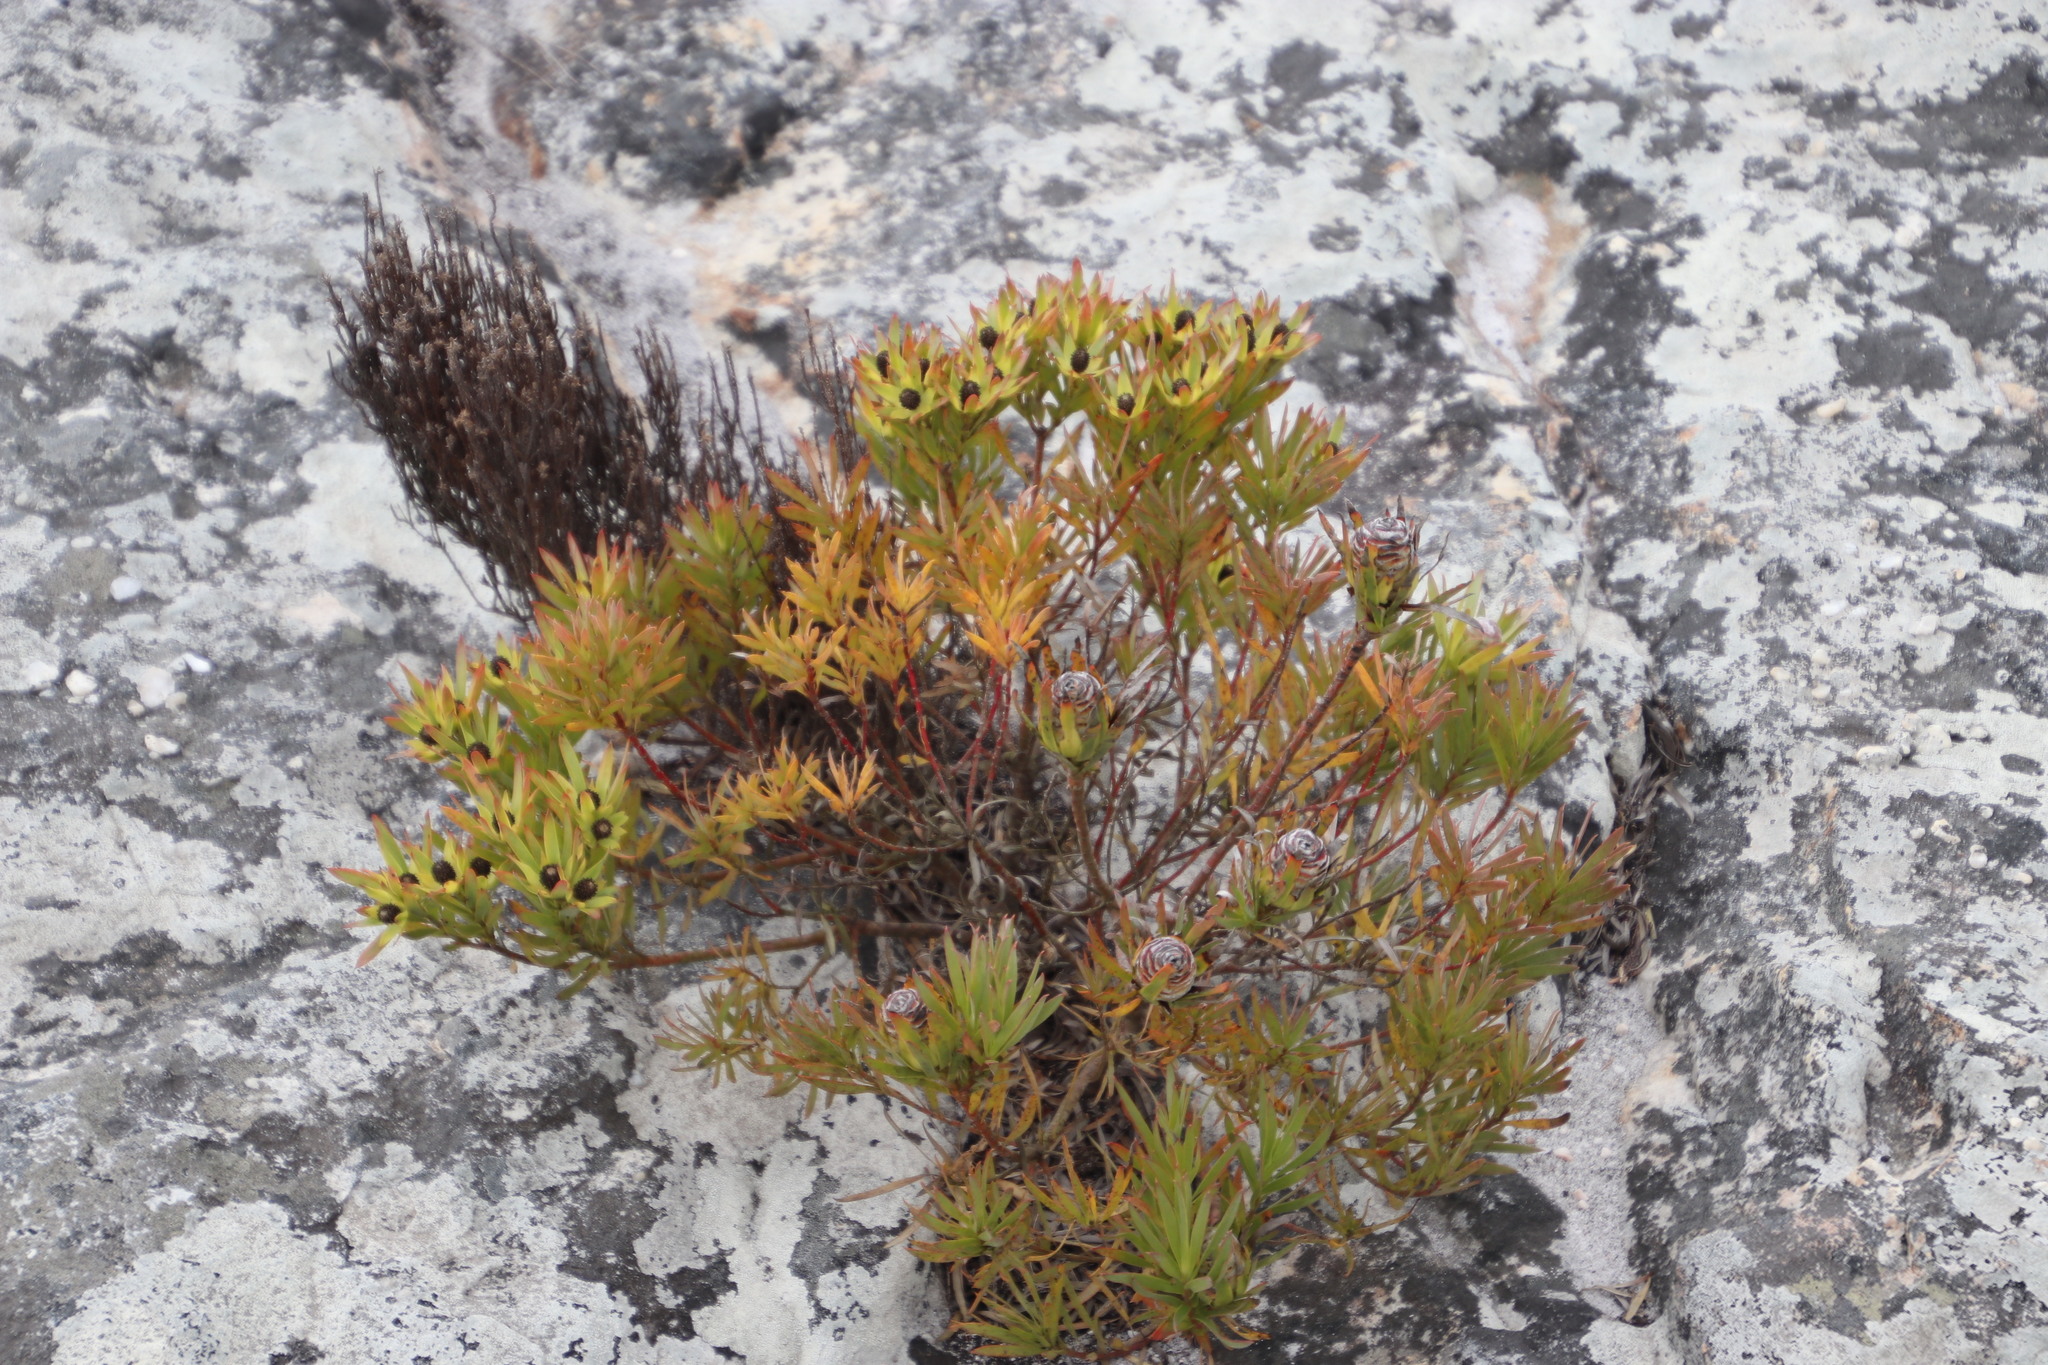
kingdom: Plantae
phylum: Tracheophyta
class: Magnoliopsida
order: Proteales
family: Proteaceae
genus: Leucadendron
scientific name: Leucadendron xanthoconus
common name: Sickle-leaf conebush
